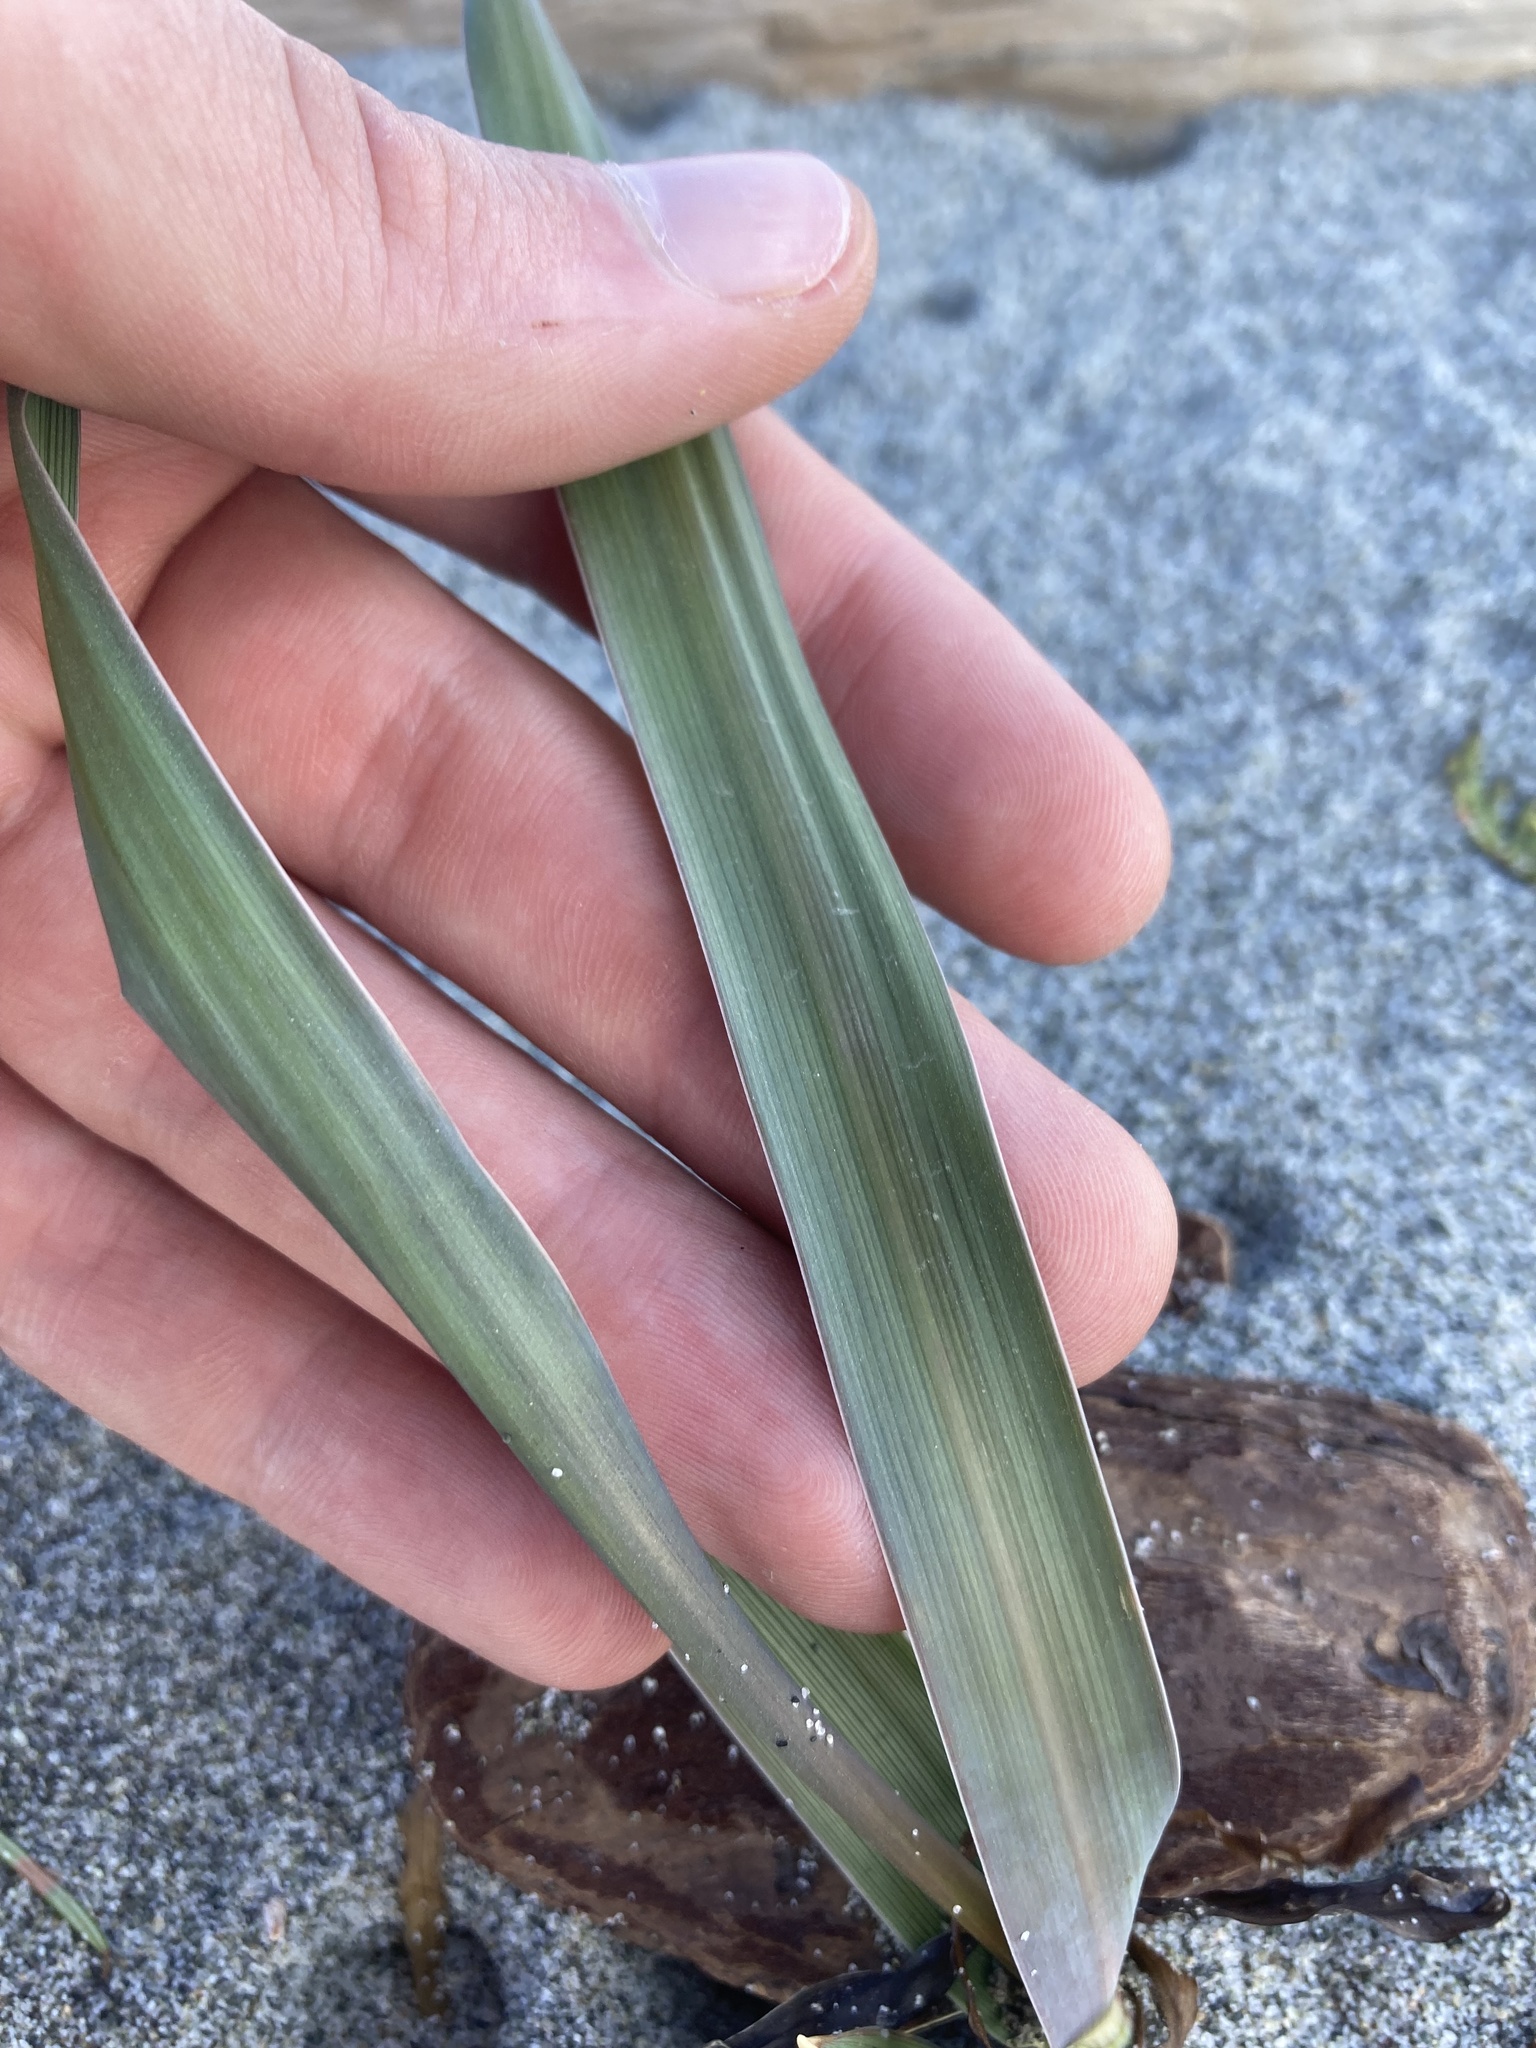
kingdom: Plantae
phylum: Tracheophyta
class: Liliopsida
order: Poales
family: Poaceae
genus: Leymus
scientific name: Leymus mollis
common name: American dune grass
